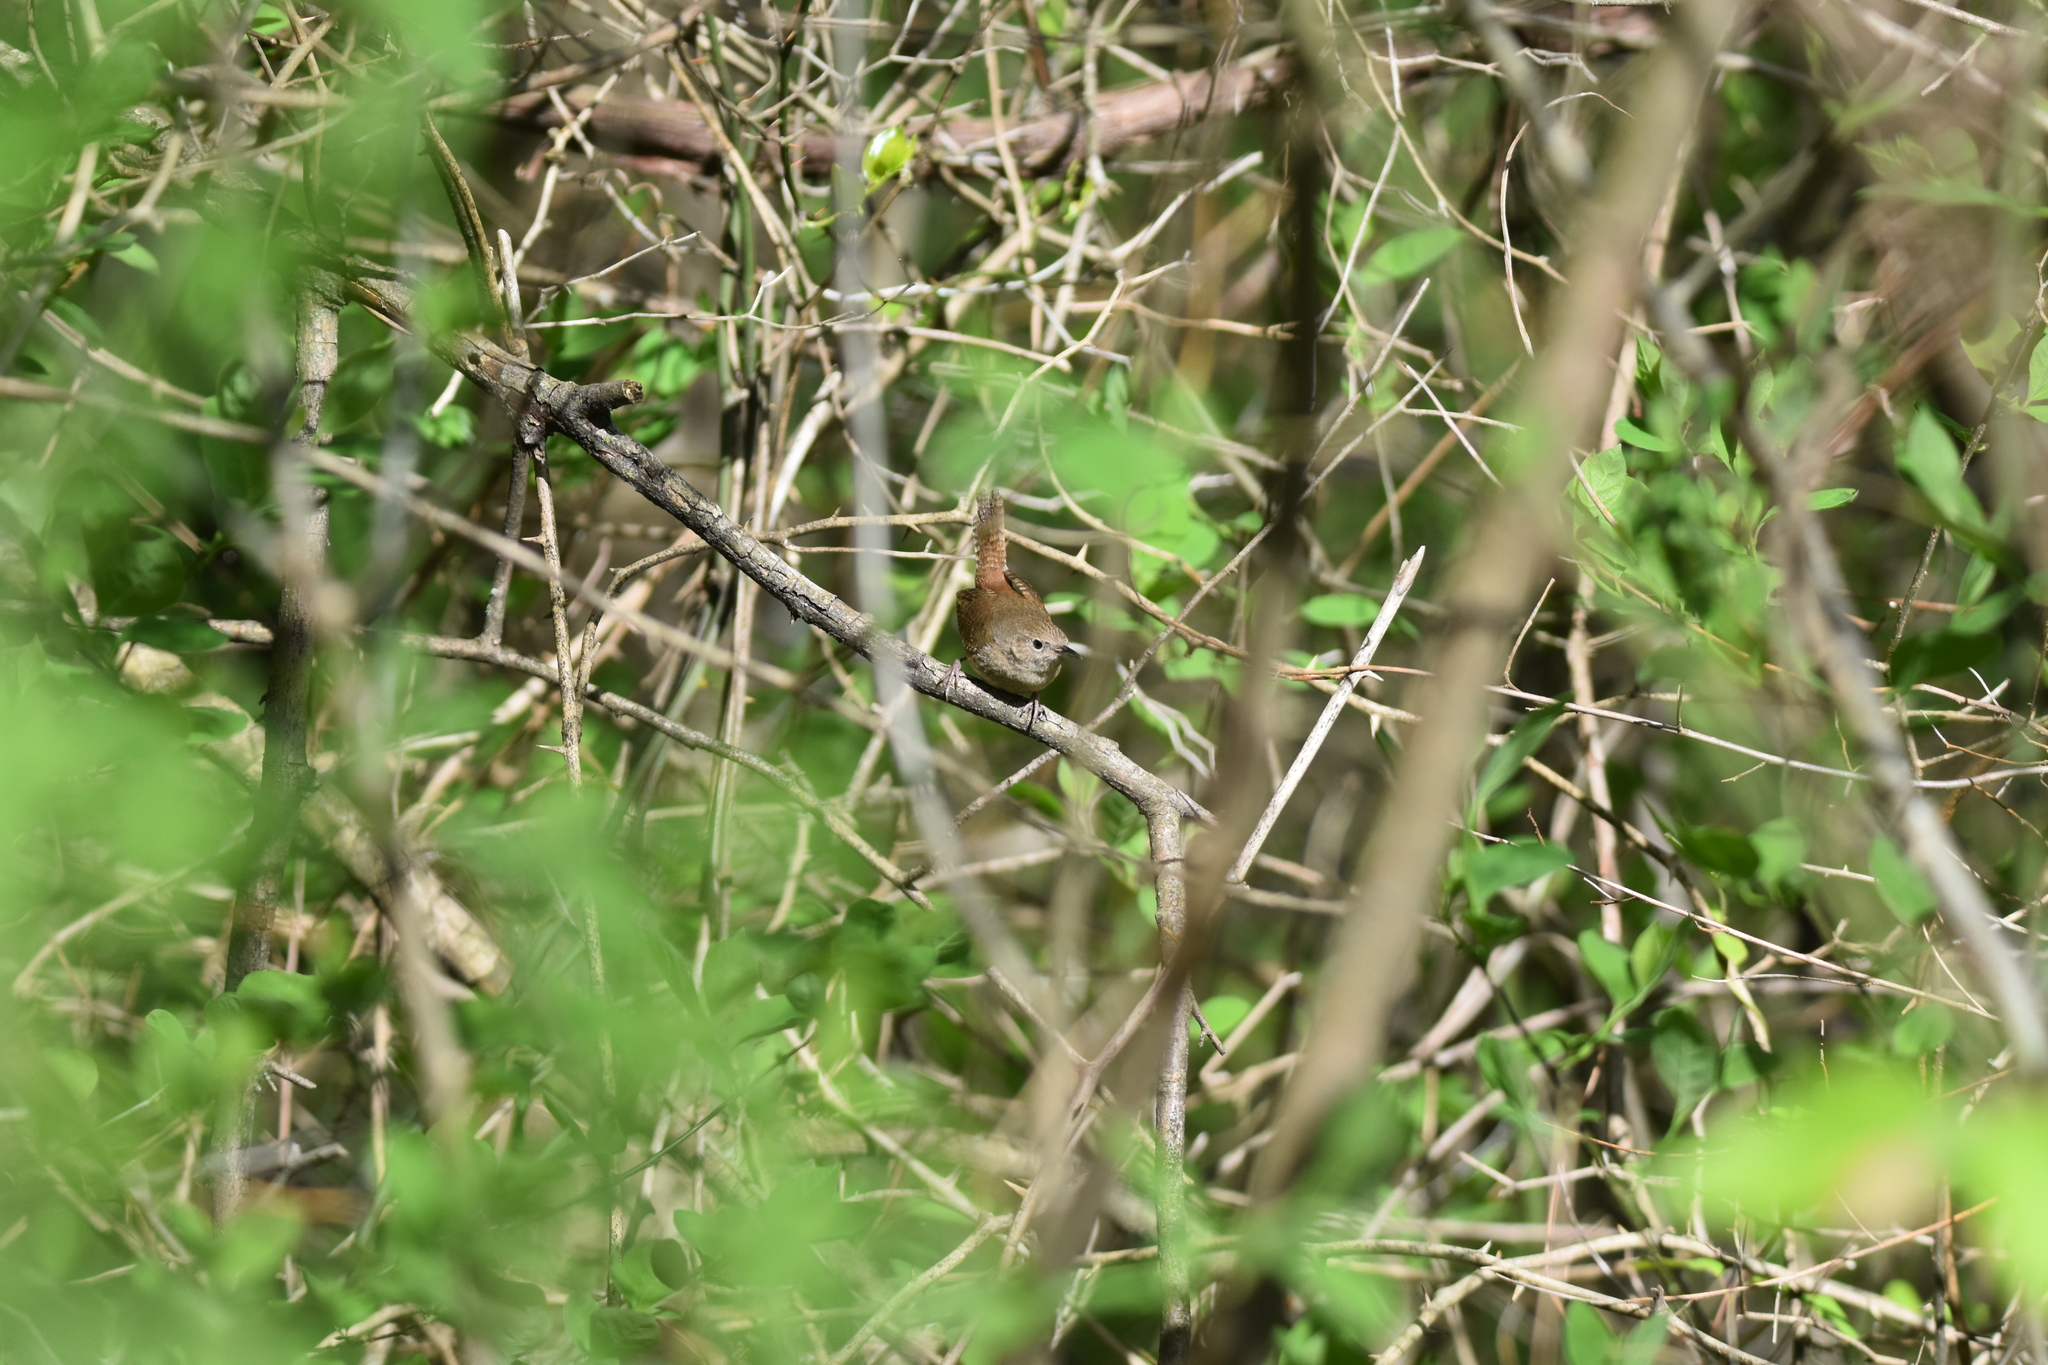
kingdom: Animalia
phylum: Chordata
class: Aves
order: Passeriformes
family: Troglodytidae
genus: Troglodytes
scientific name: Troglodytes aedon
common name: House wren
